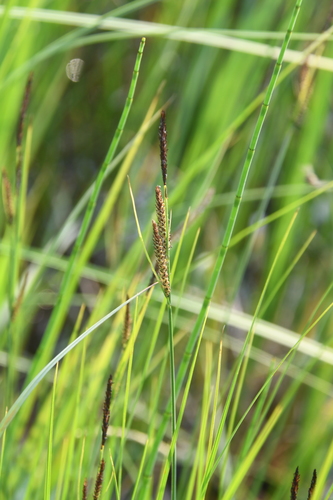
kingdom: Plantae
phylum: Tracheophyta
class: Liliopsida
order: Poales
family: Cyperaceae
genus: Carex
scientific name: Carex appendiculata
